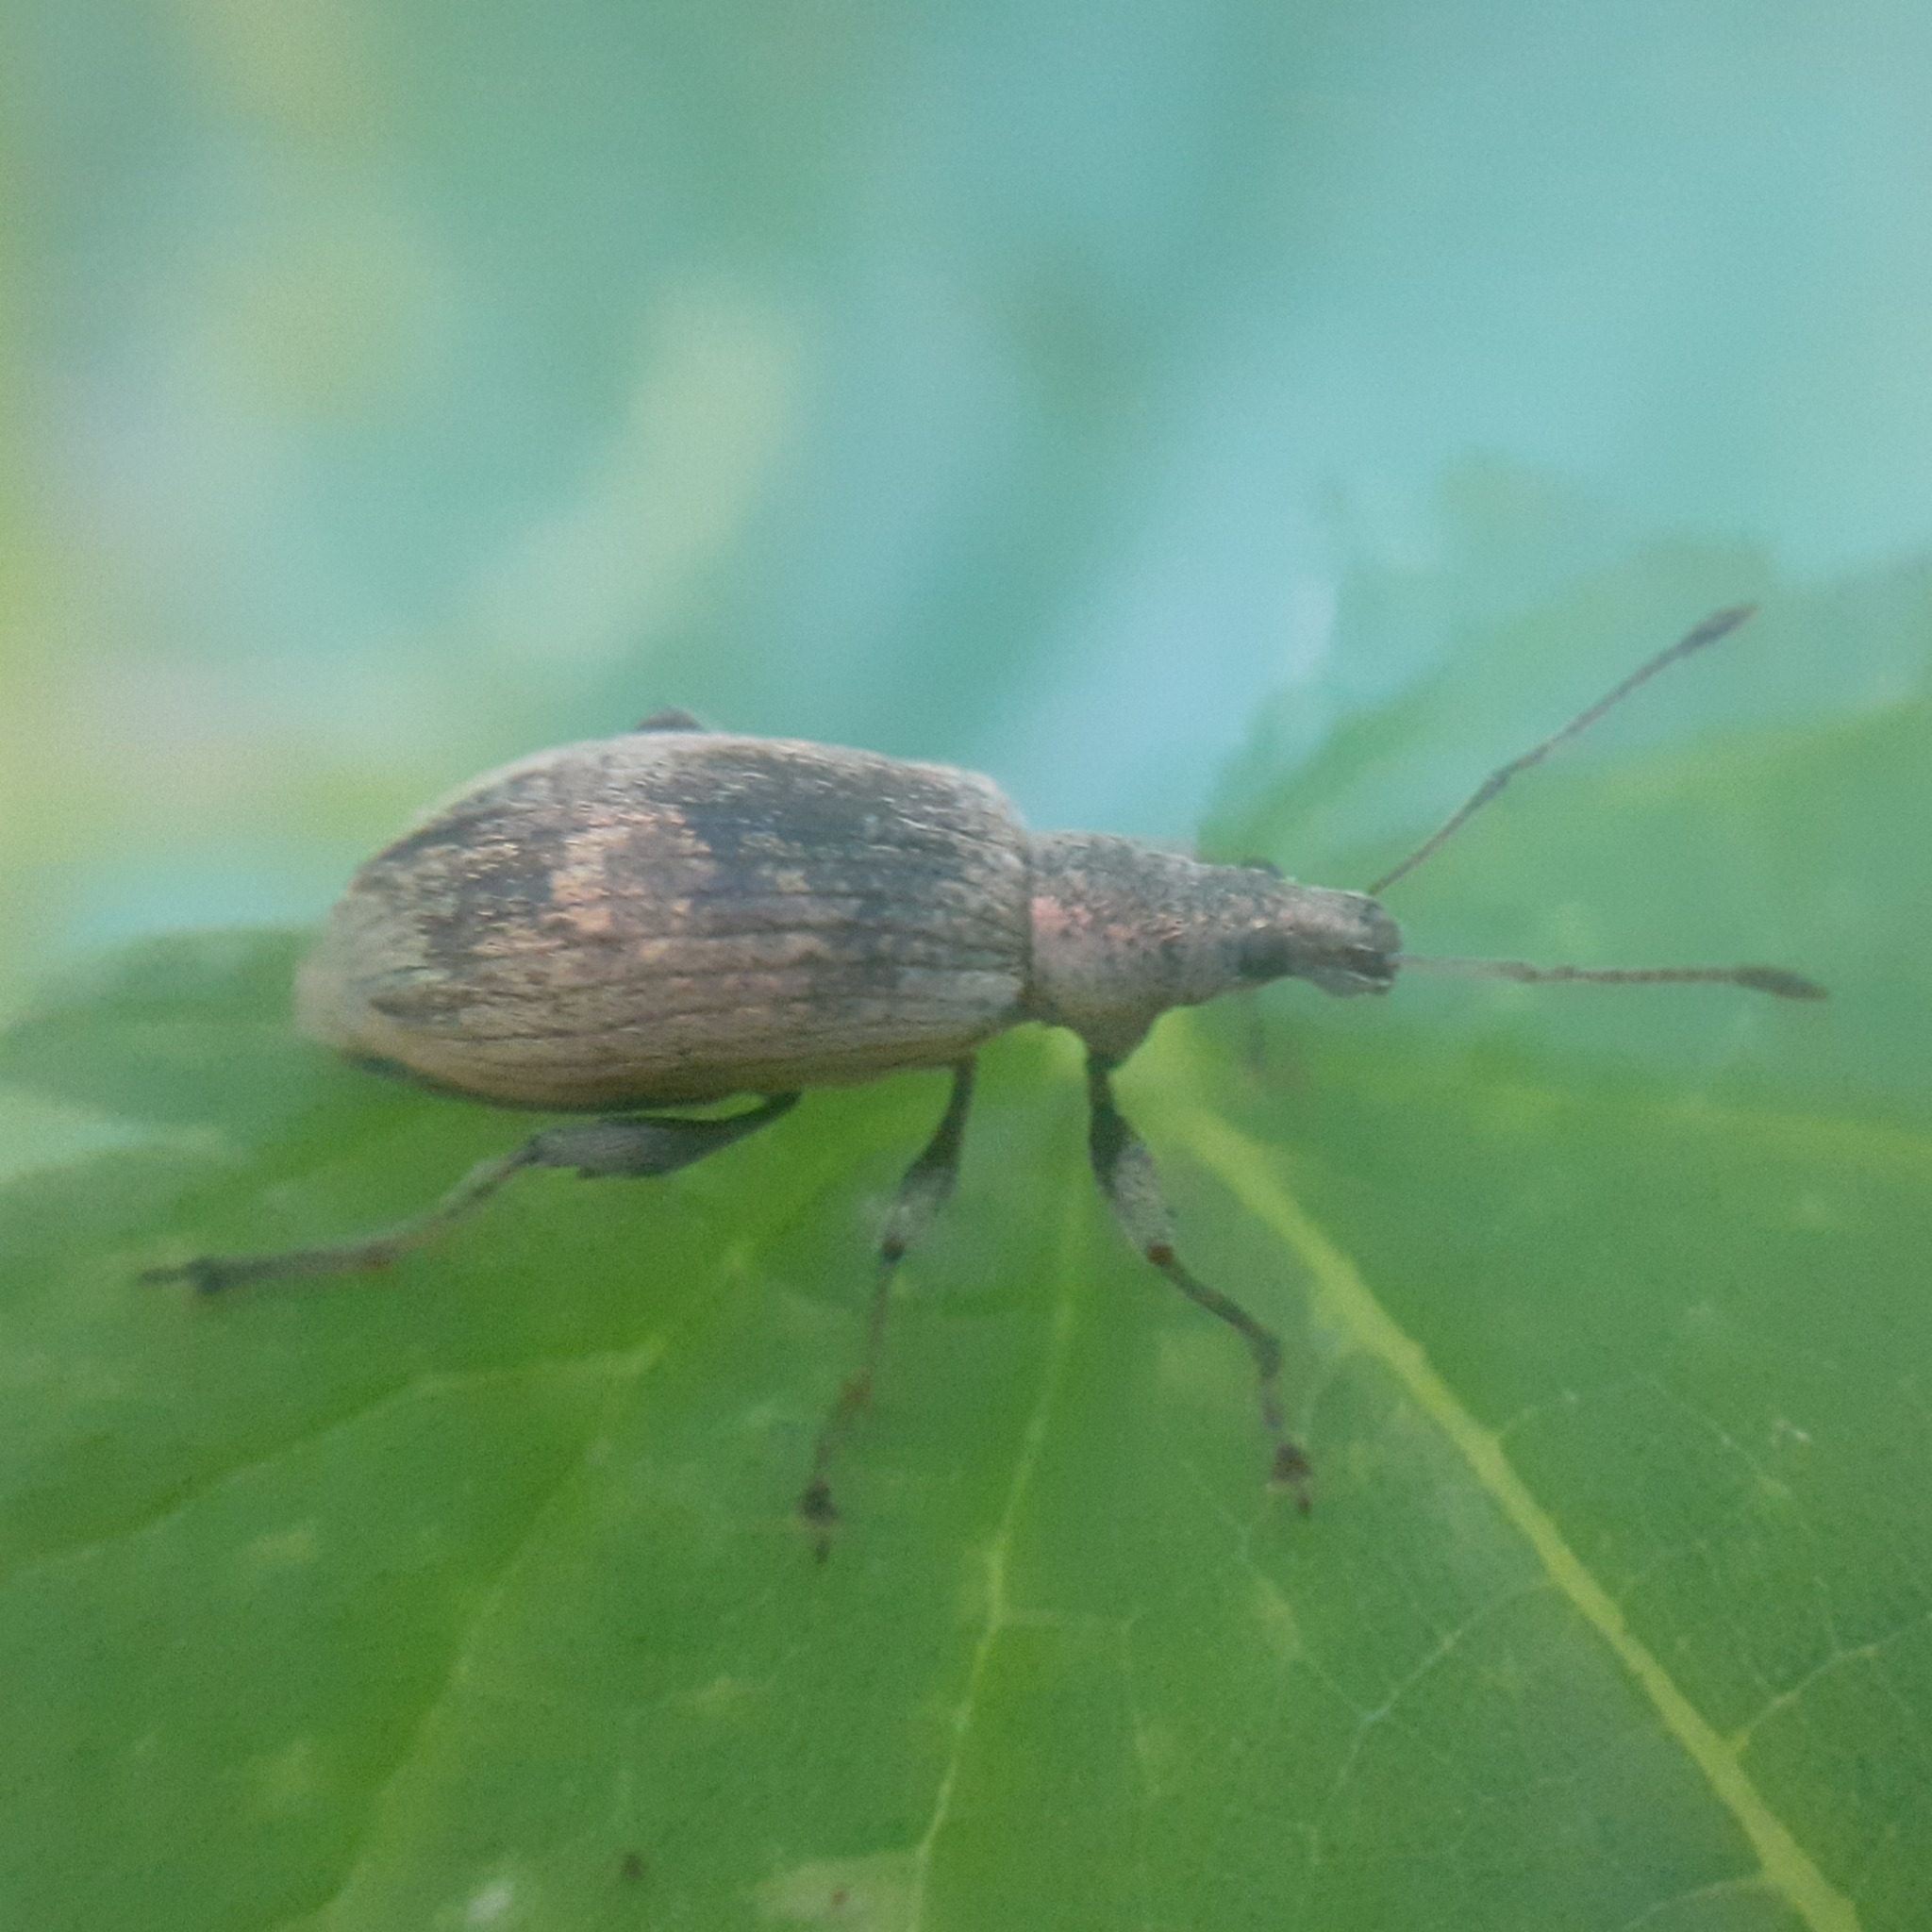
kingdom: Animalia
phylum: Arthropoda
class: Insecta
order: Coleoptera
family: Curculionidae
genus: Phyllobius
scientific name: Phyllobius pomaceus
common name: Green nettle weevil
